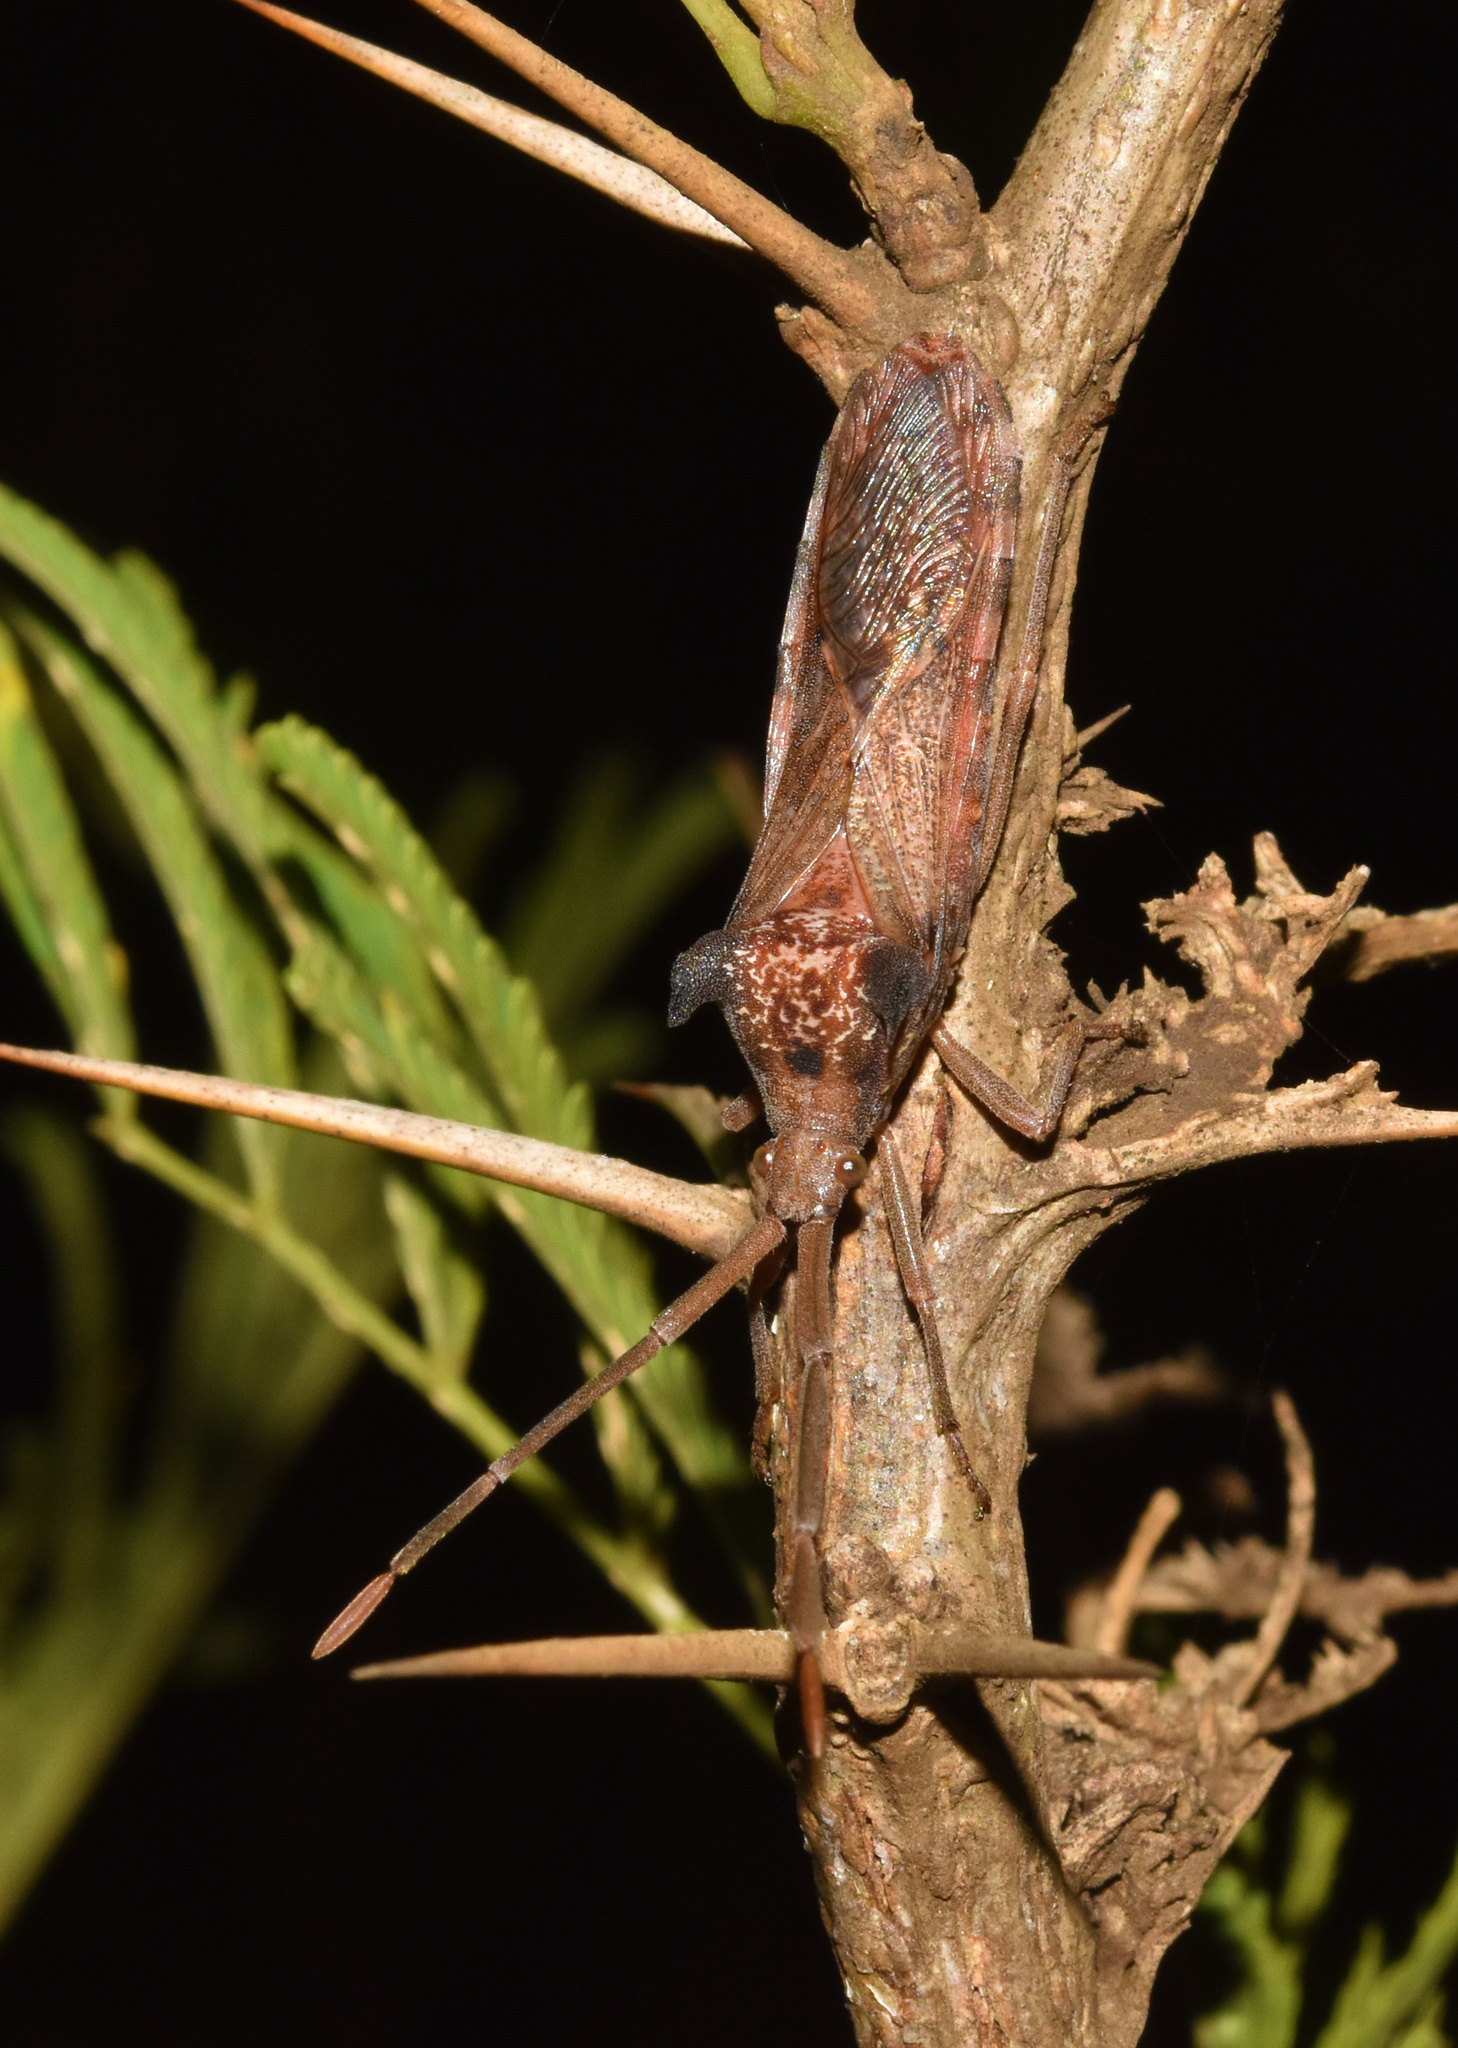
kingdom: Animalia
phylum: Arthropoda
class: Insecta
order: Hemiptera
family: Coreidae
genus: Prismatocerus
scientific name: Prismatocerus magnicornis
